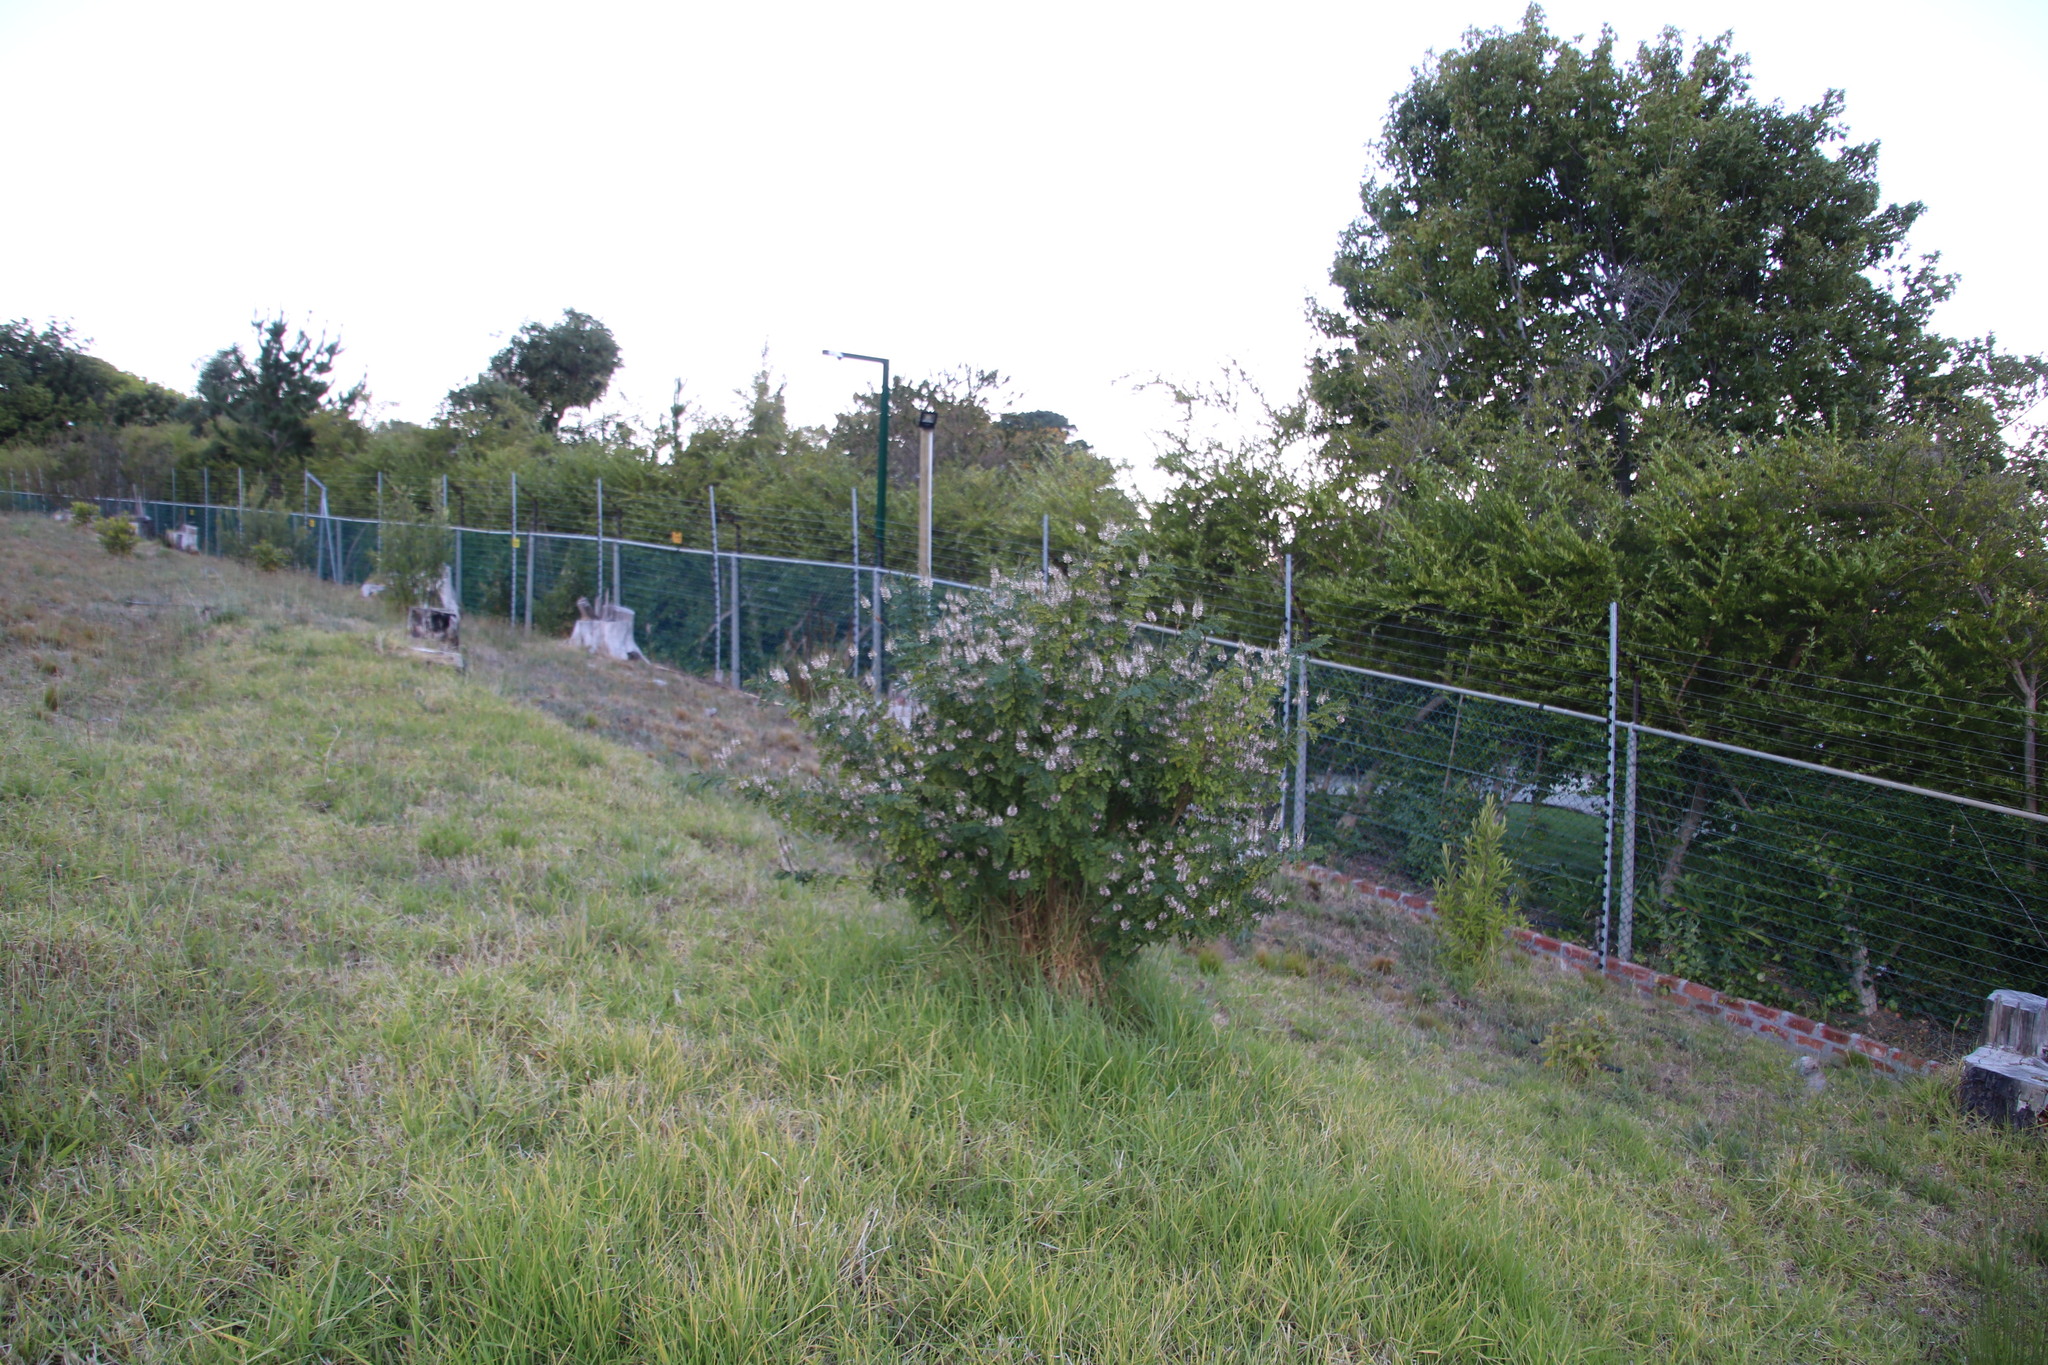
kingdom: Plantae
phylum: Tracheophyta
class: Magnoliopsida
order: Fabales
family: Fabaceae
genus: Indigofera
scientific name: Indigofera jucunda
